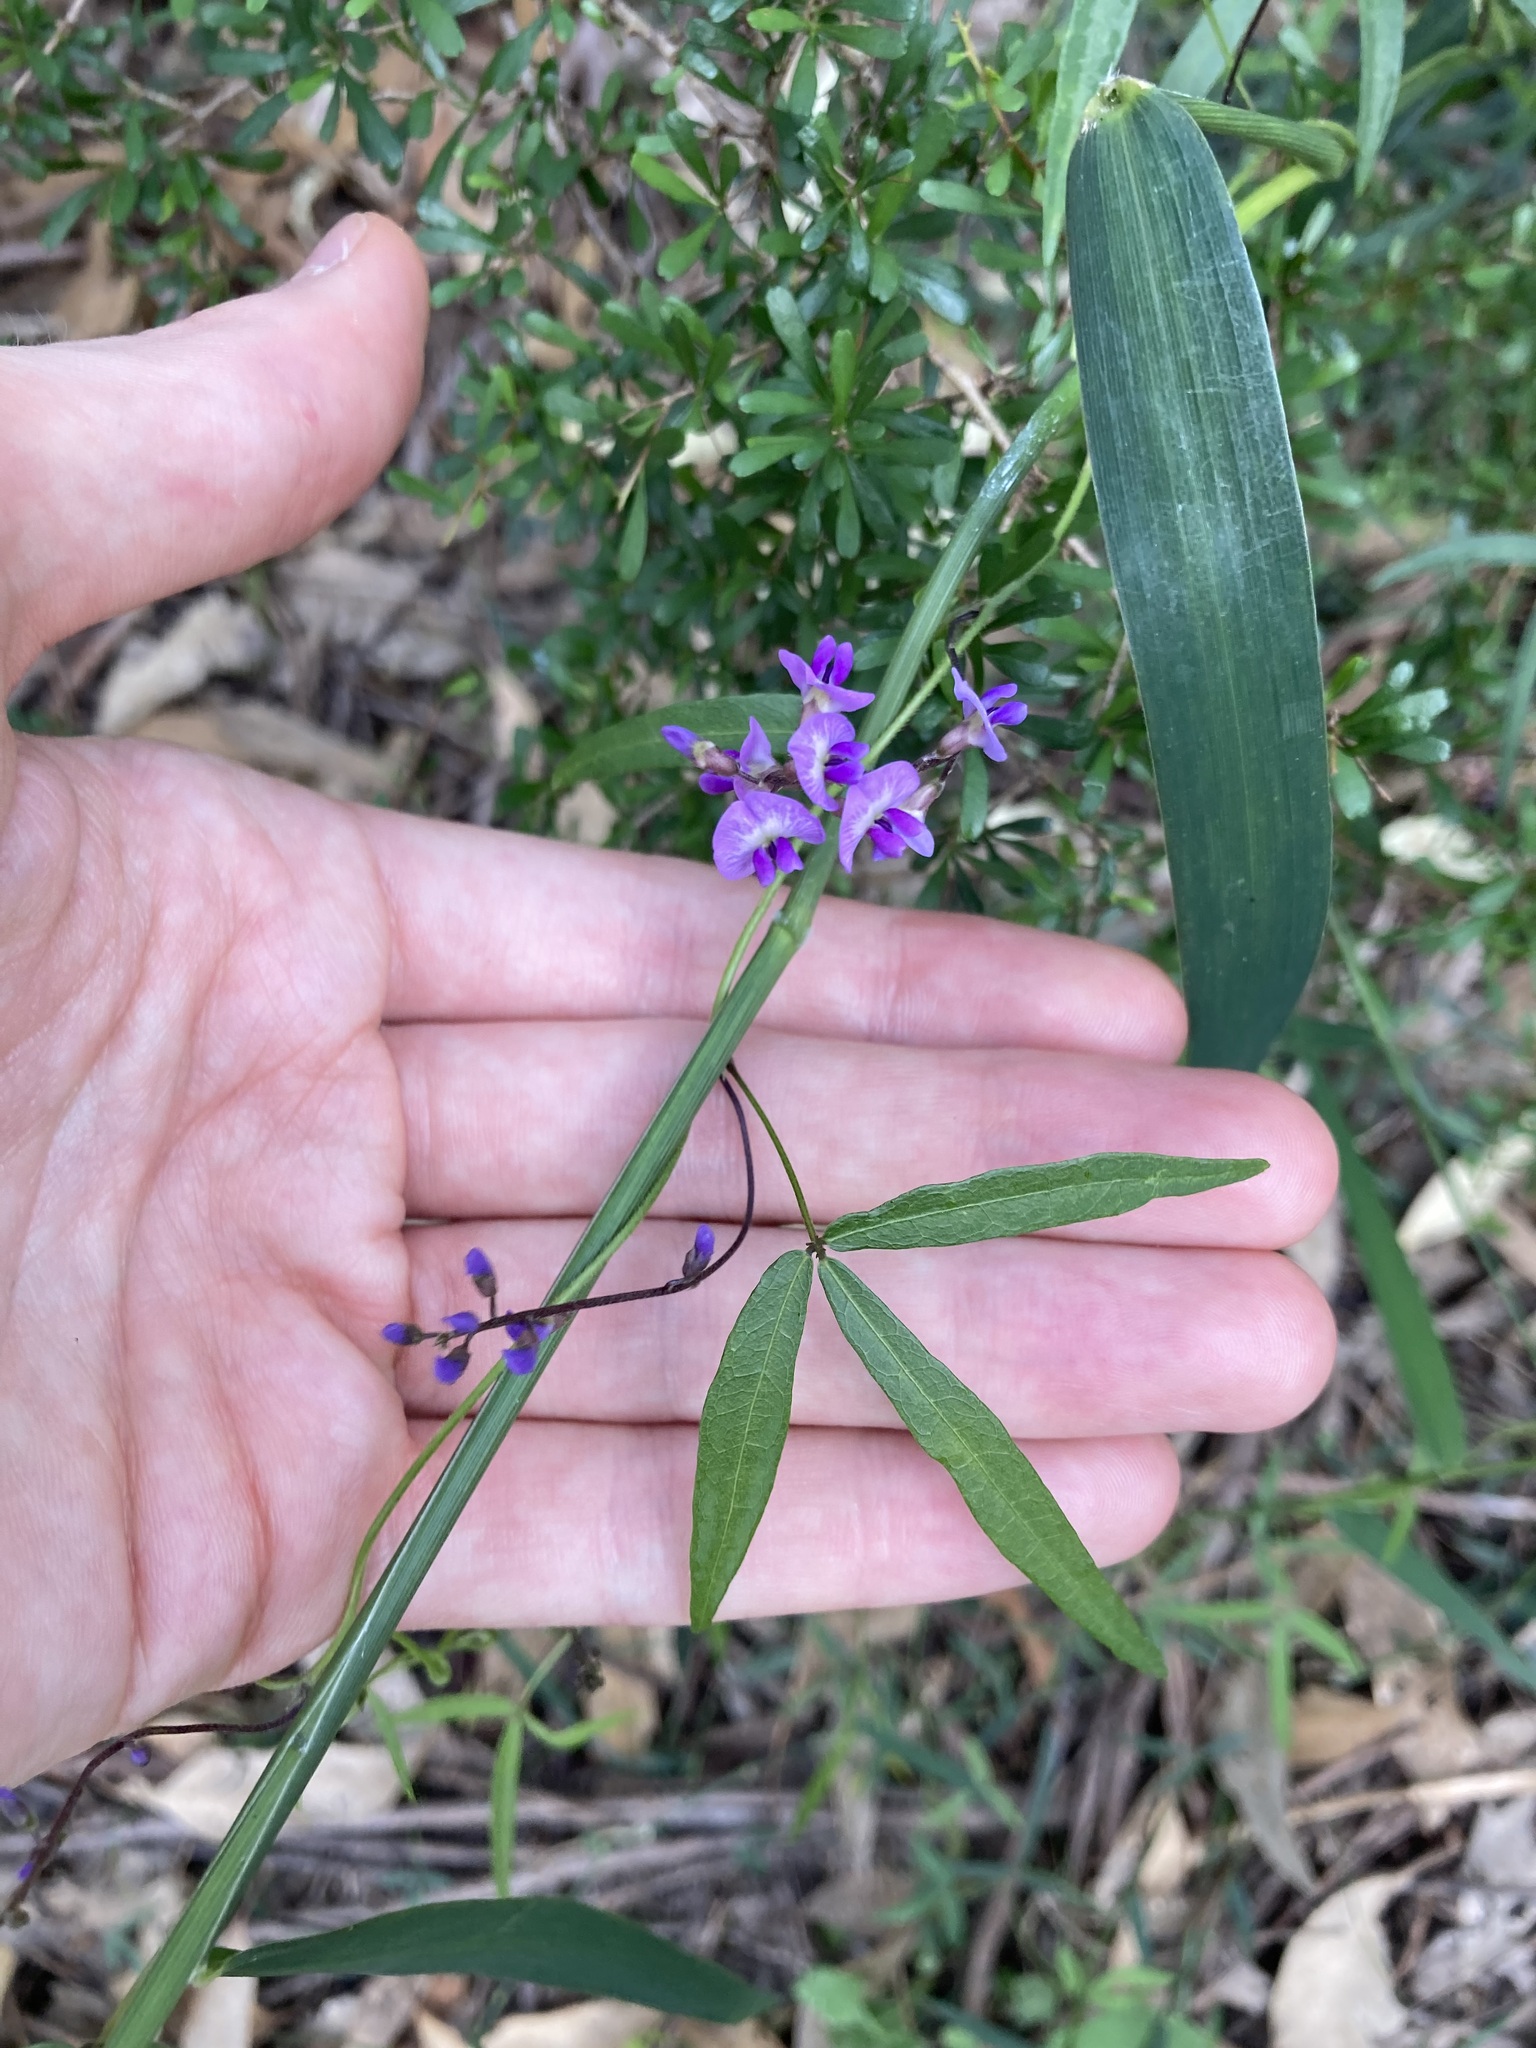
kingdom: Plantae
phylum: Tracheophyta
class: Magnoliopsida
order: Fabales
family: Fabaceae
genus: Glycine
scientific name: Glycine clandestina
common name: Twining glycine
